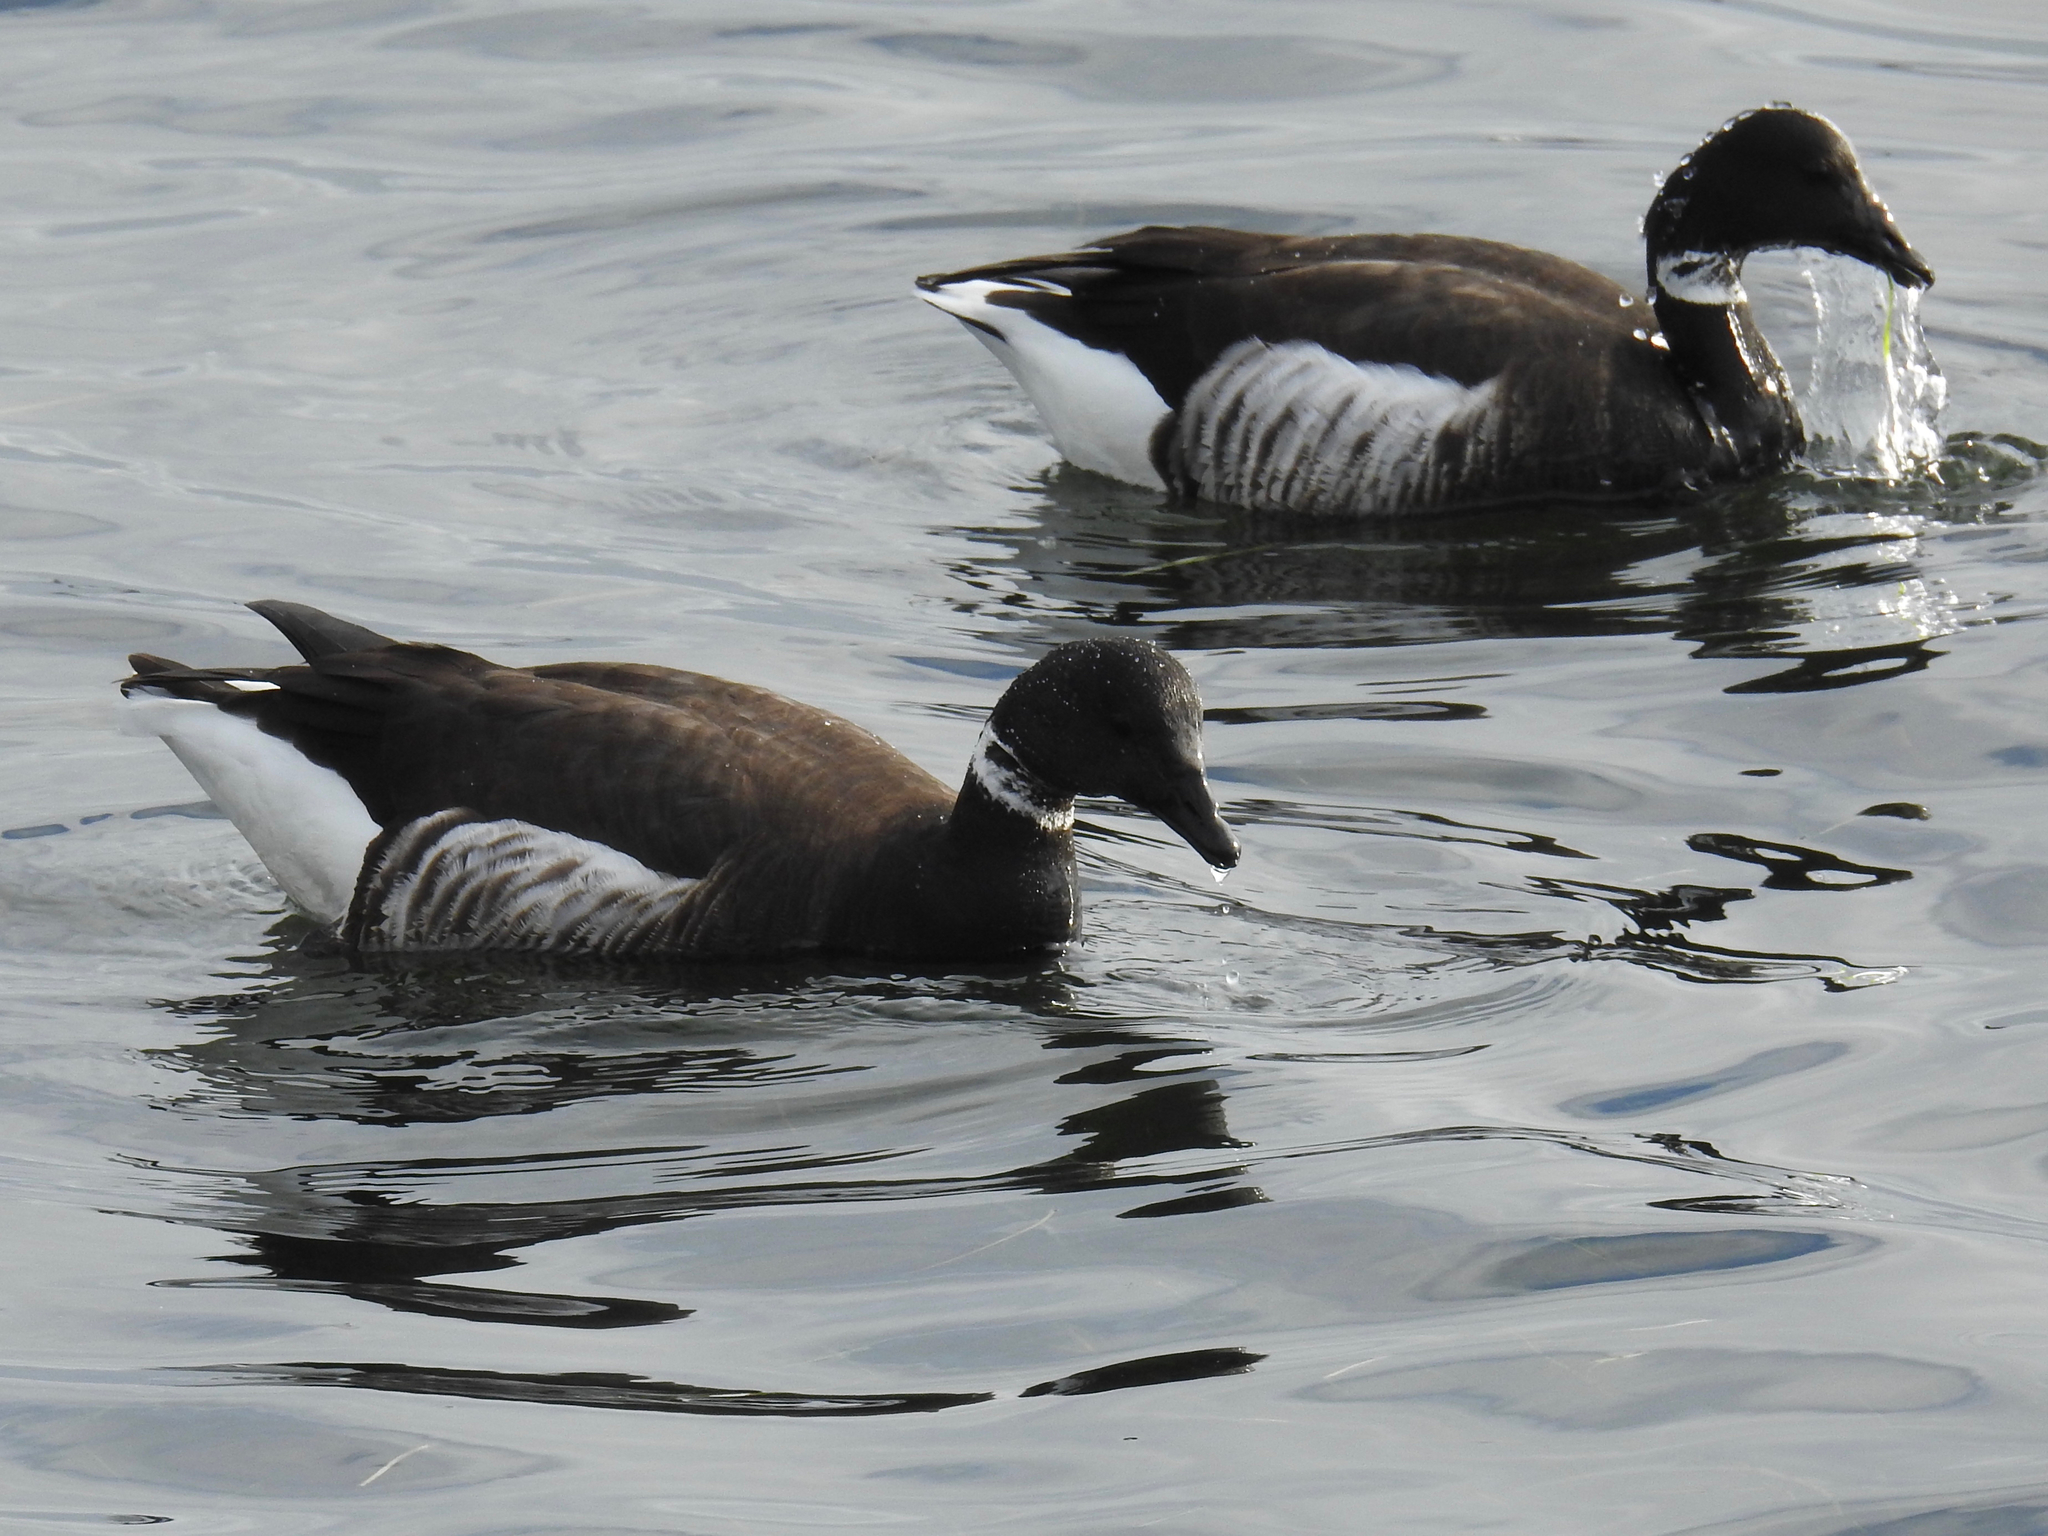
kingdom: Animalia
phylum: Chordata
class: Aves
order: Anseriformes
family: Anatidae
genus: Branta
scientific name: Branta bernicla
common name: Brant goose
